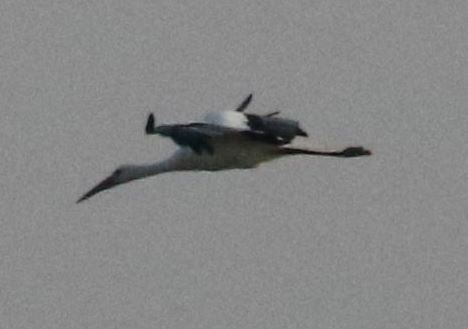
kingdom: Animalia
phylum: Chordata
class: Aves
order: Ciconiiformes
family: Ciconiidae
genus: Ciconia
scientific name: Ciconia ciconia
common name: White stork
